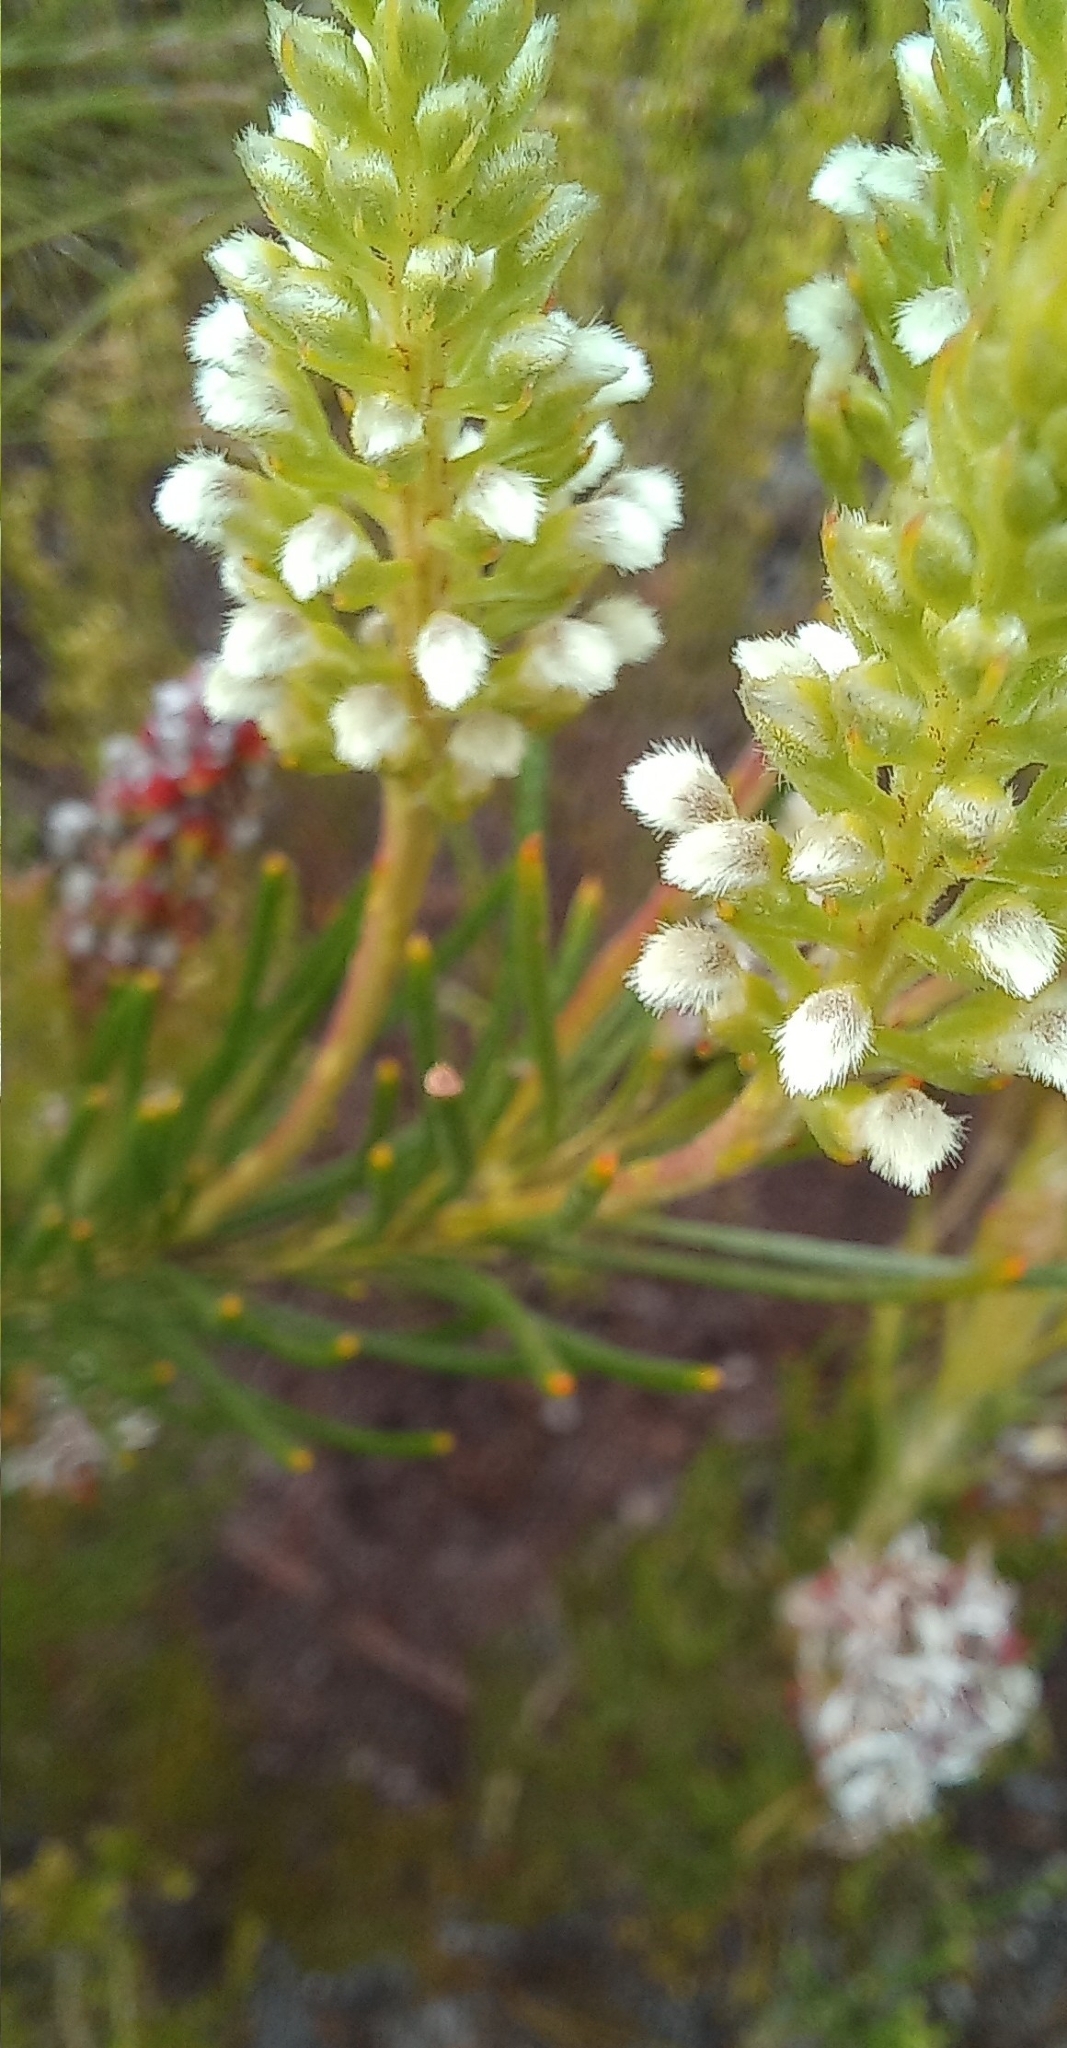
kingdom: Plantae
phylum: Tracheophyta
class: Magnoliopsida
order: Proteales
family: Proteaceae
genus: Spatalla
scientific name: Spatalla curvifolia
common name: White-stalked spoon
